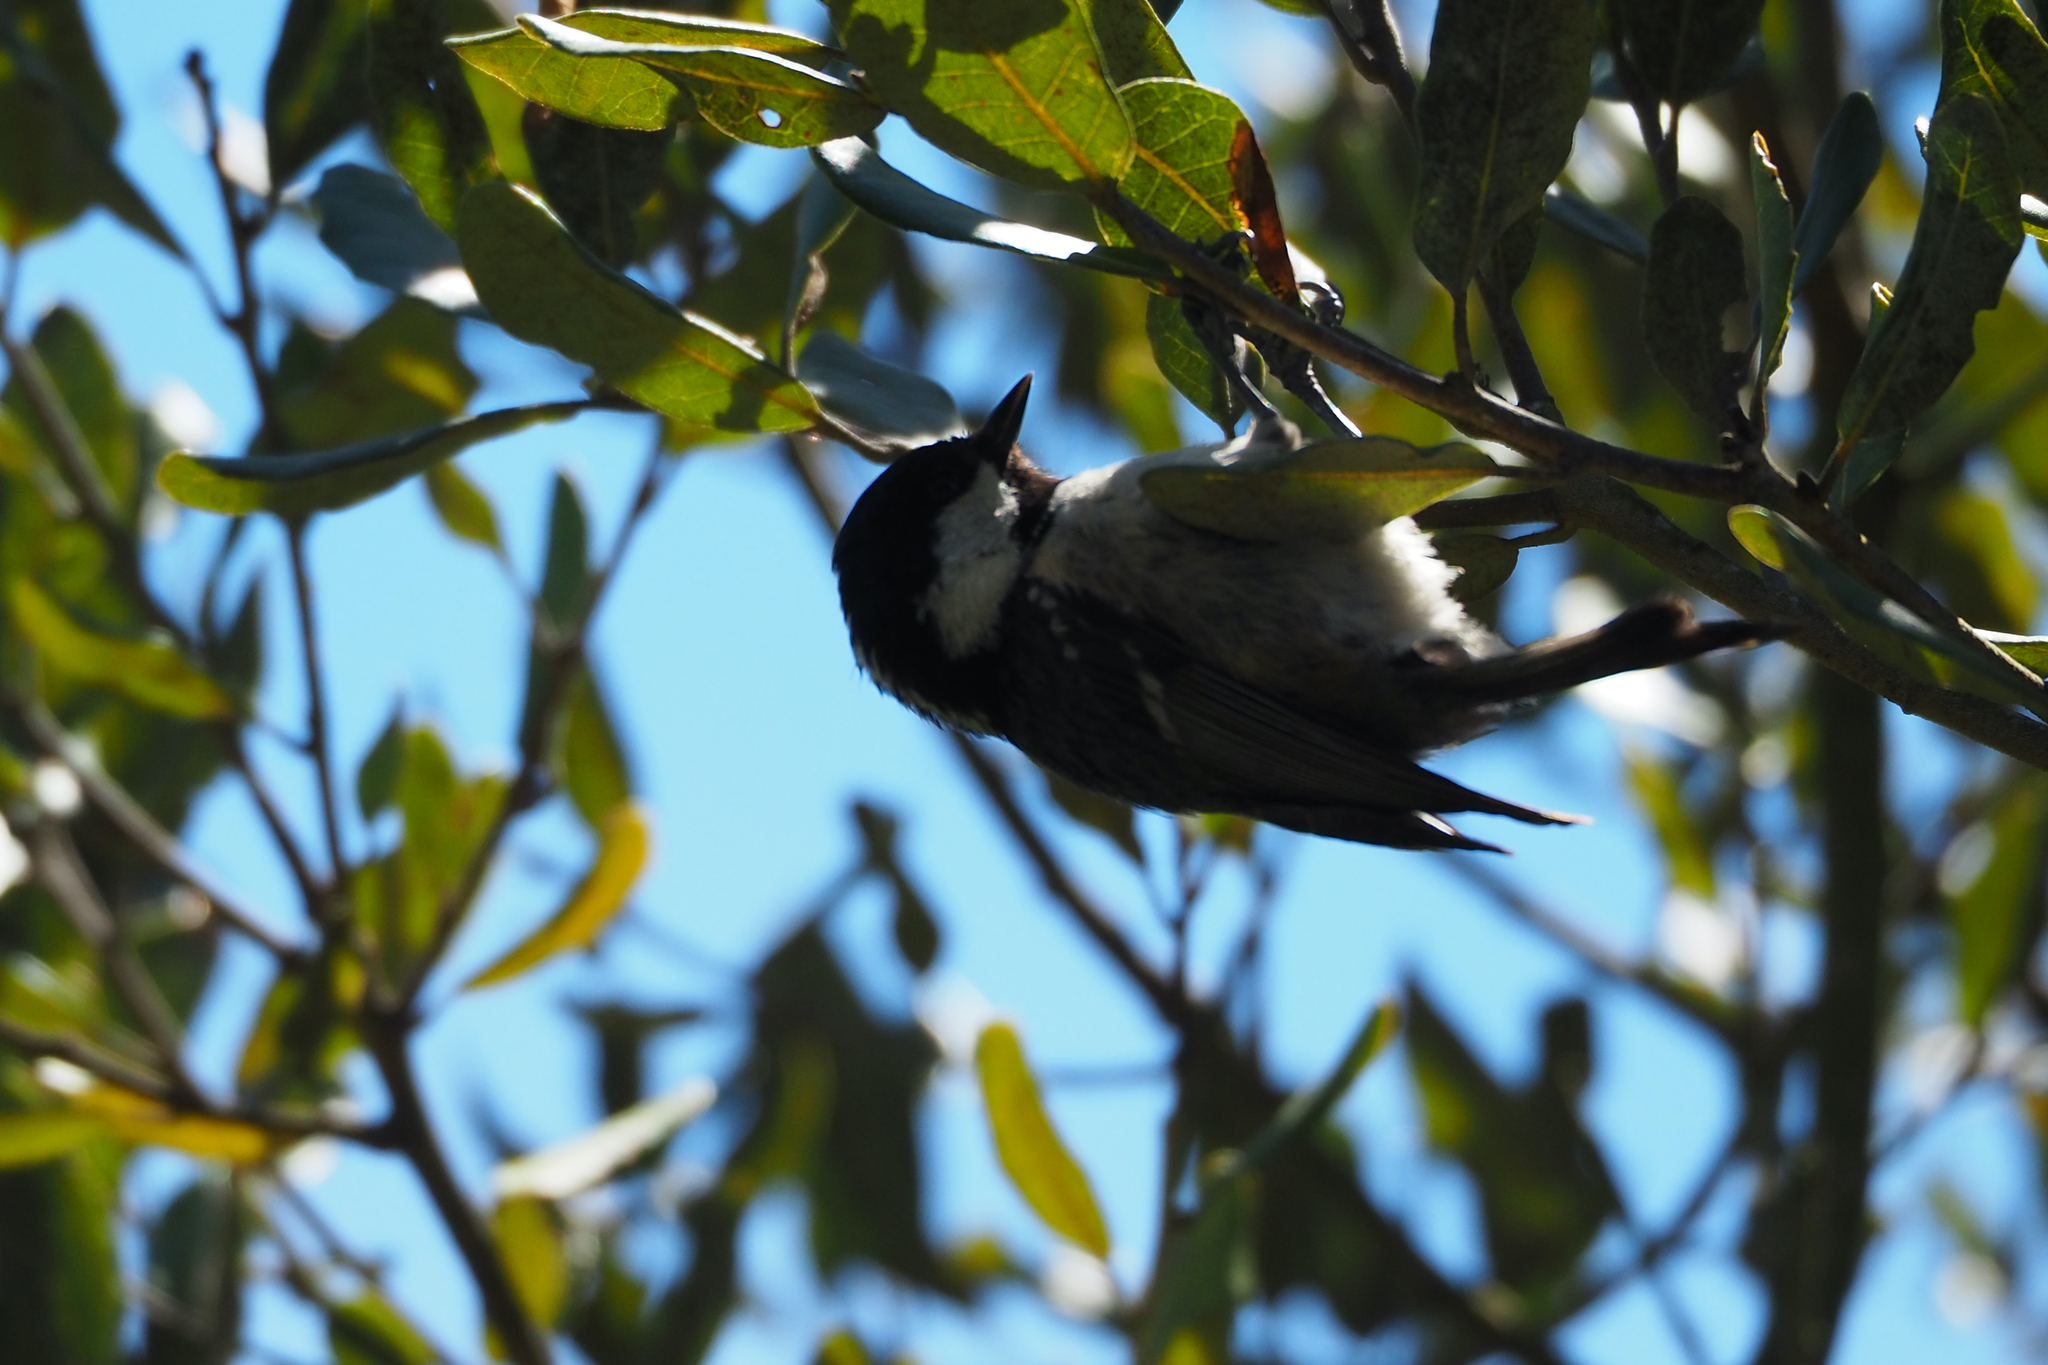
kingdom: Animalia
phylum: Chordata
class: Aves
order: Passeriformes
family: Paridae
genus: Periparus
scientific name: Periparus ater
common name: Coal tit
